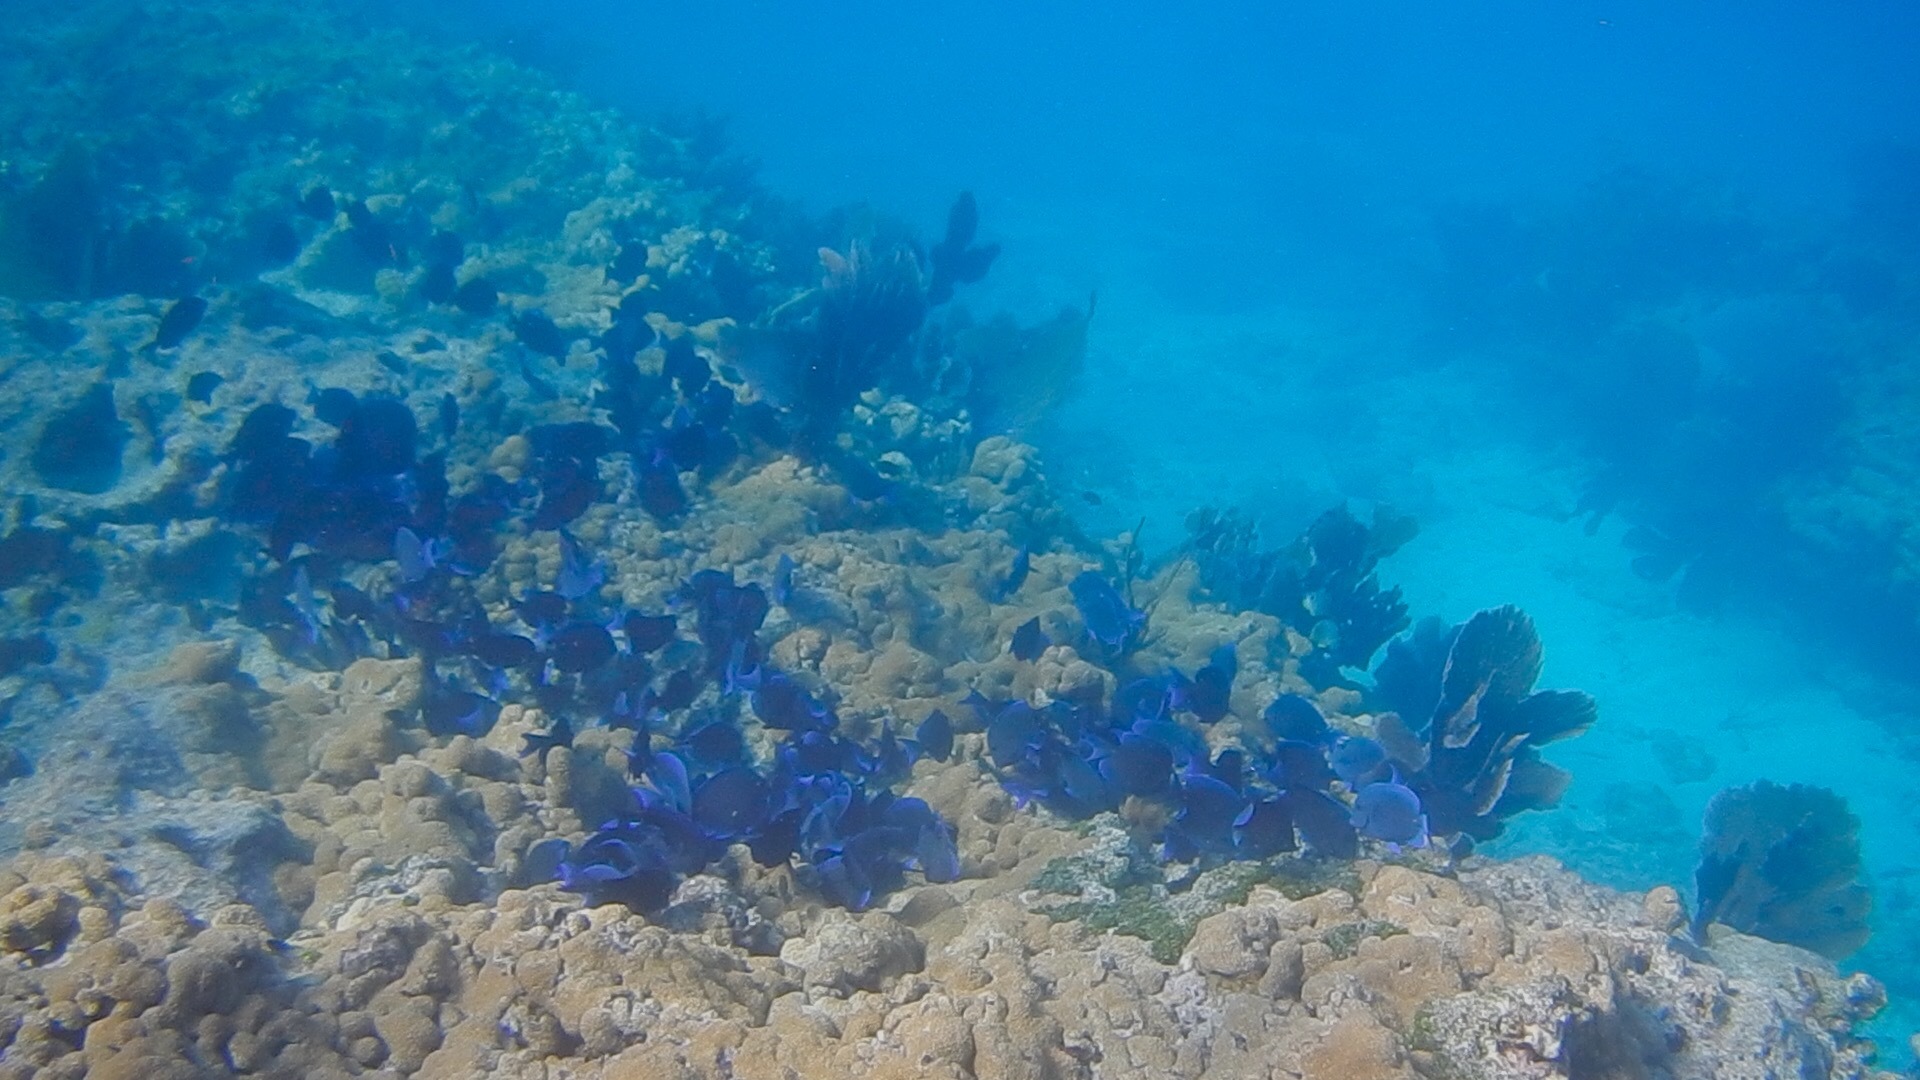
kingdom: Animalia
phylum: Chordata
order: Perciformes
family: Acanthuridae
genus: Acanthurus
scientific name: Acanthurus coeruleus
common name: Blue tang
